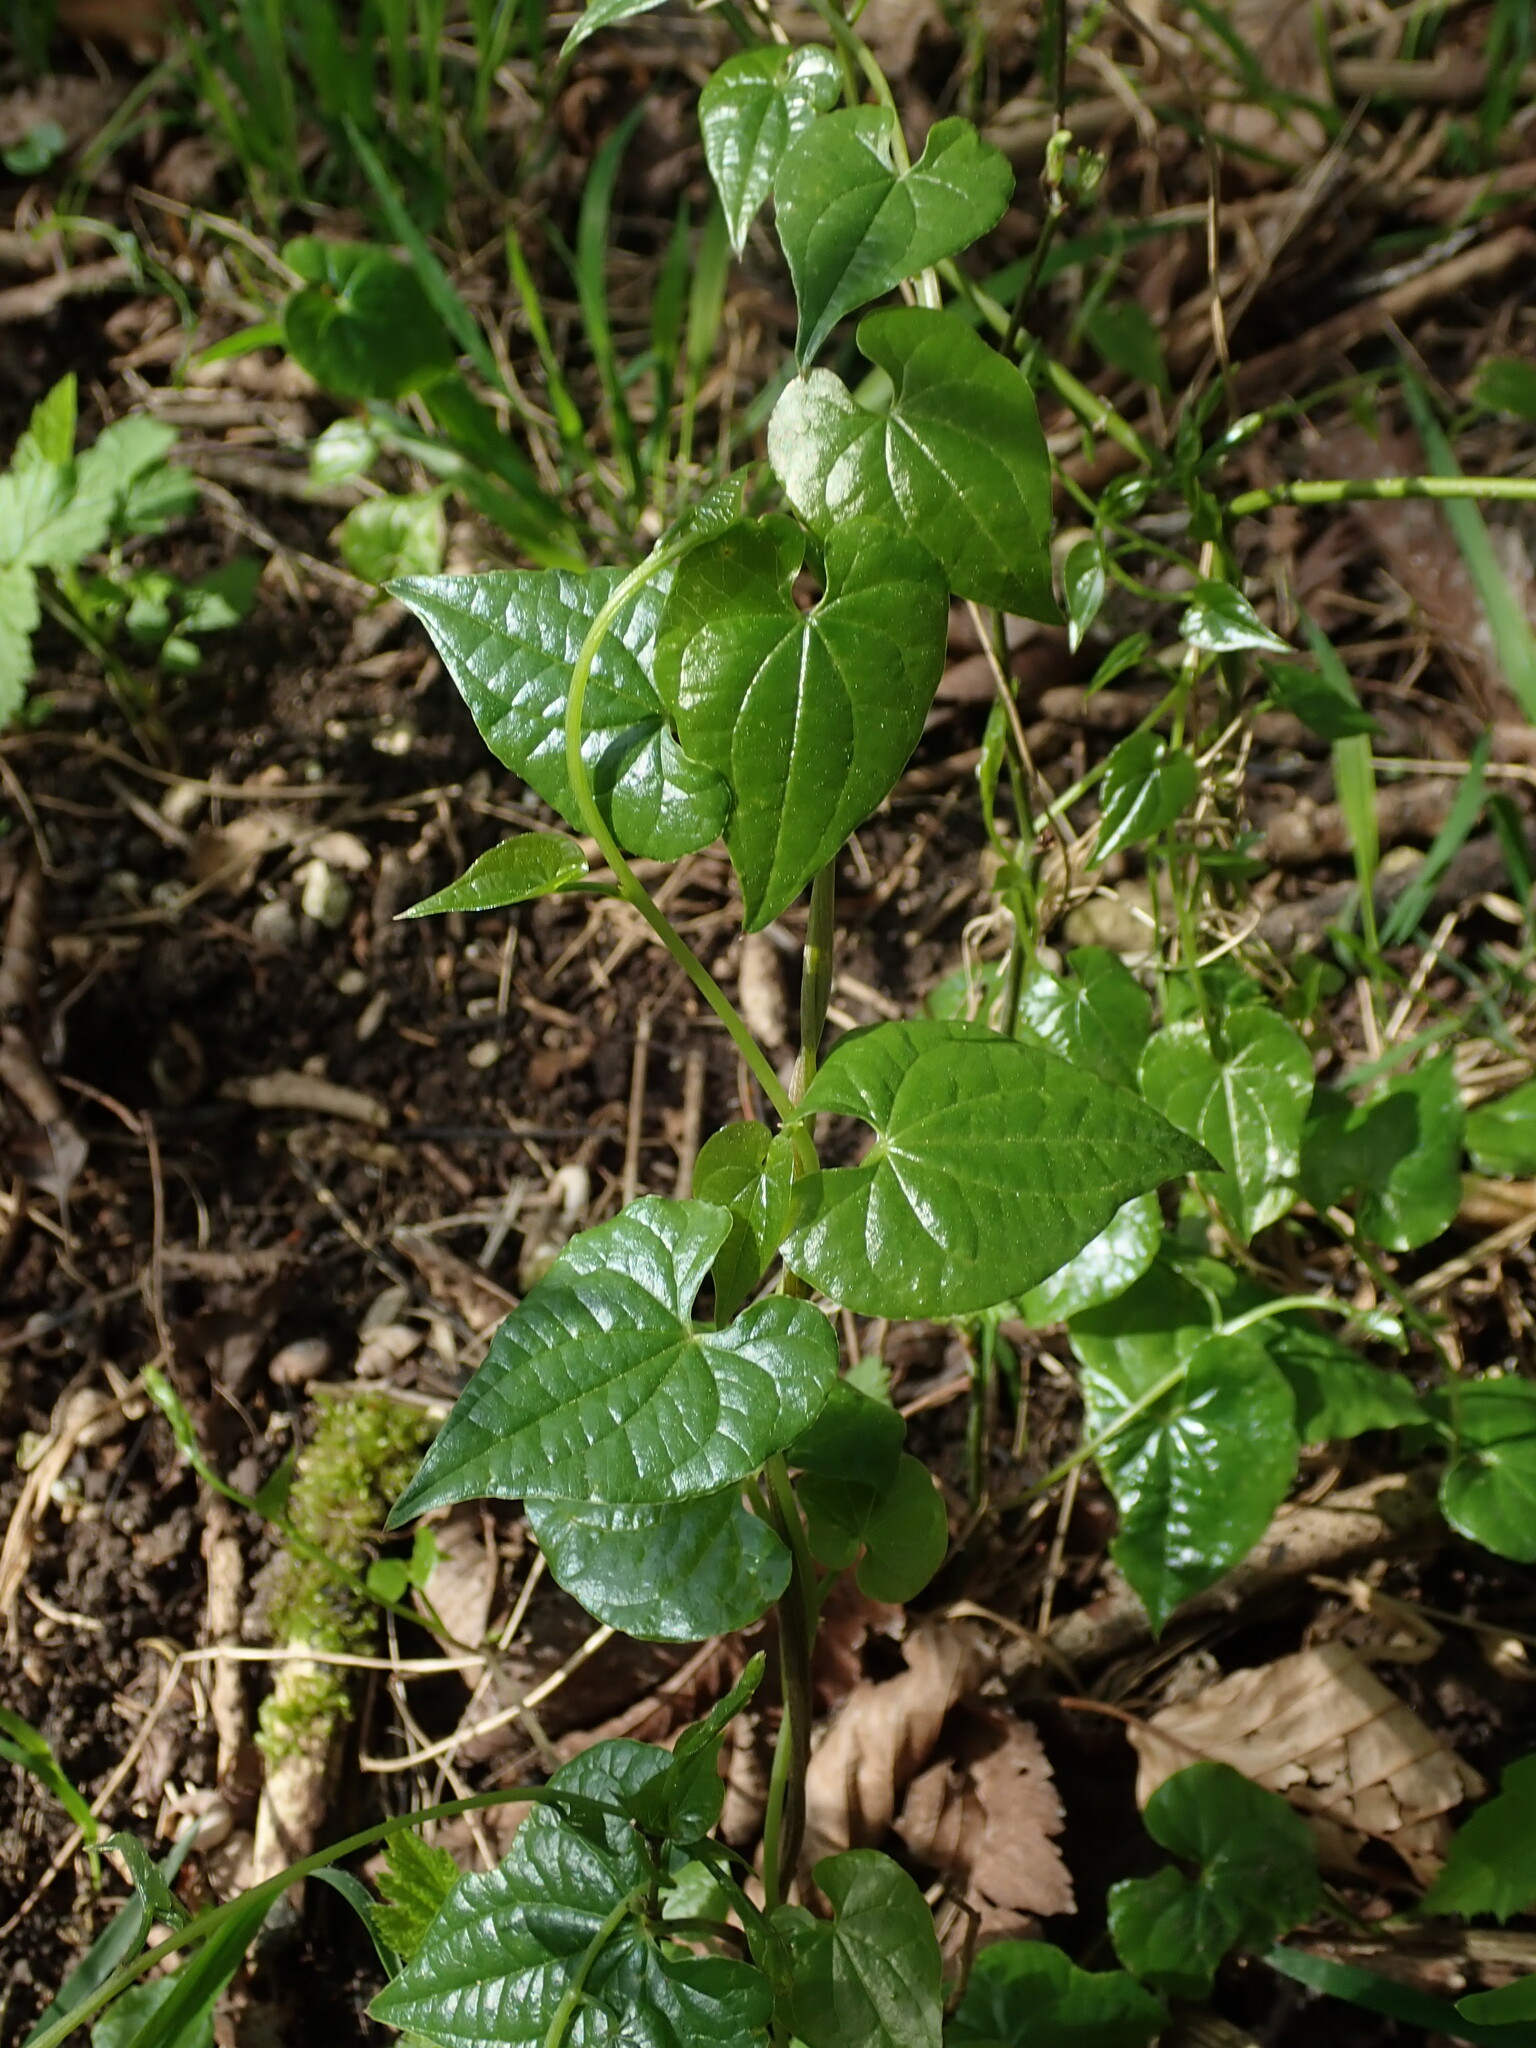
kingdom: Plantae
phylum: Tracheophyta
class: Liliopsida
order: Dioscoreales
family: Dioscoreaceae
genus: Dioscorea
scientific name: Dioscorea communis
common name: Black-bindweed
